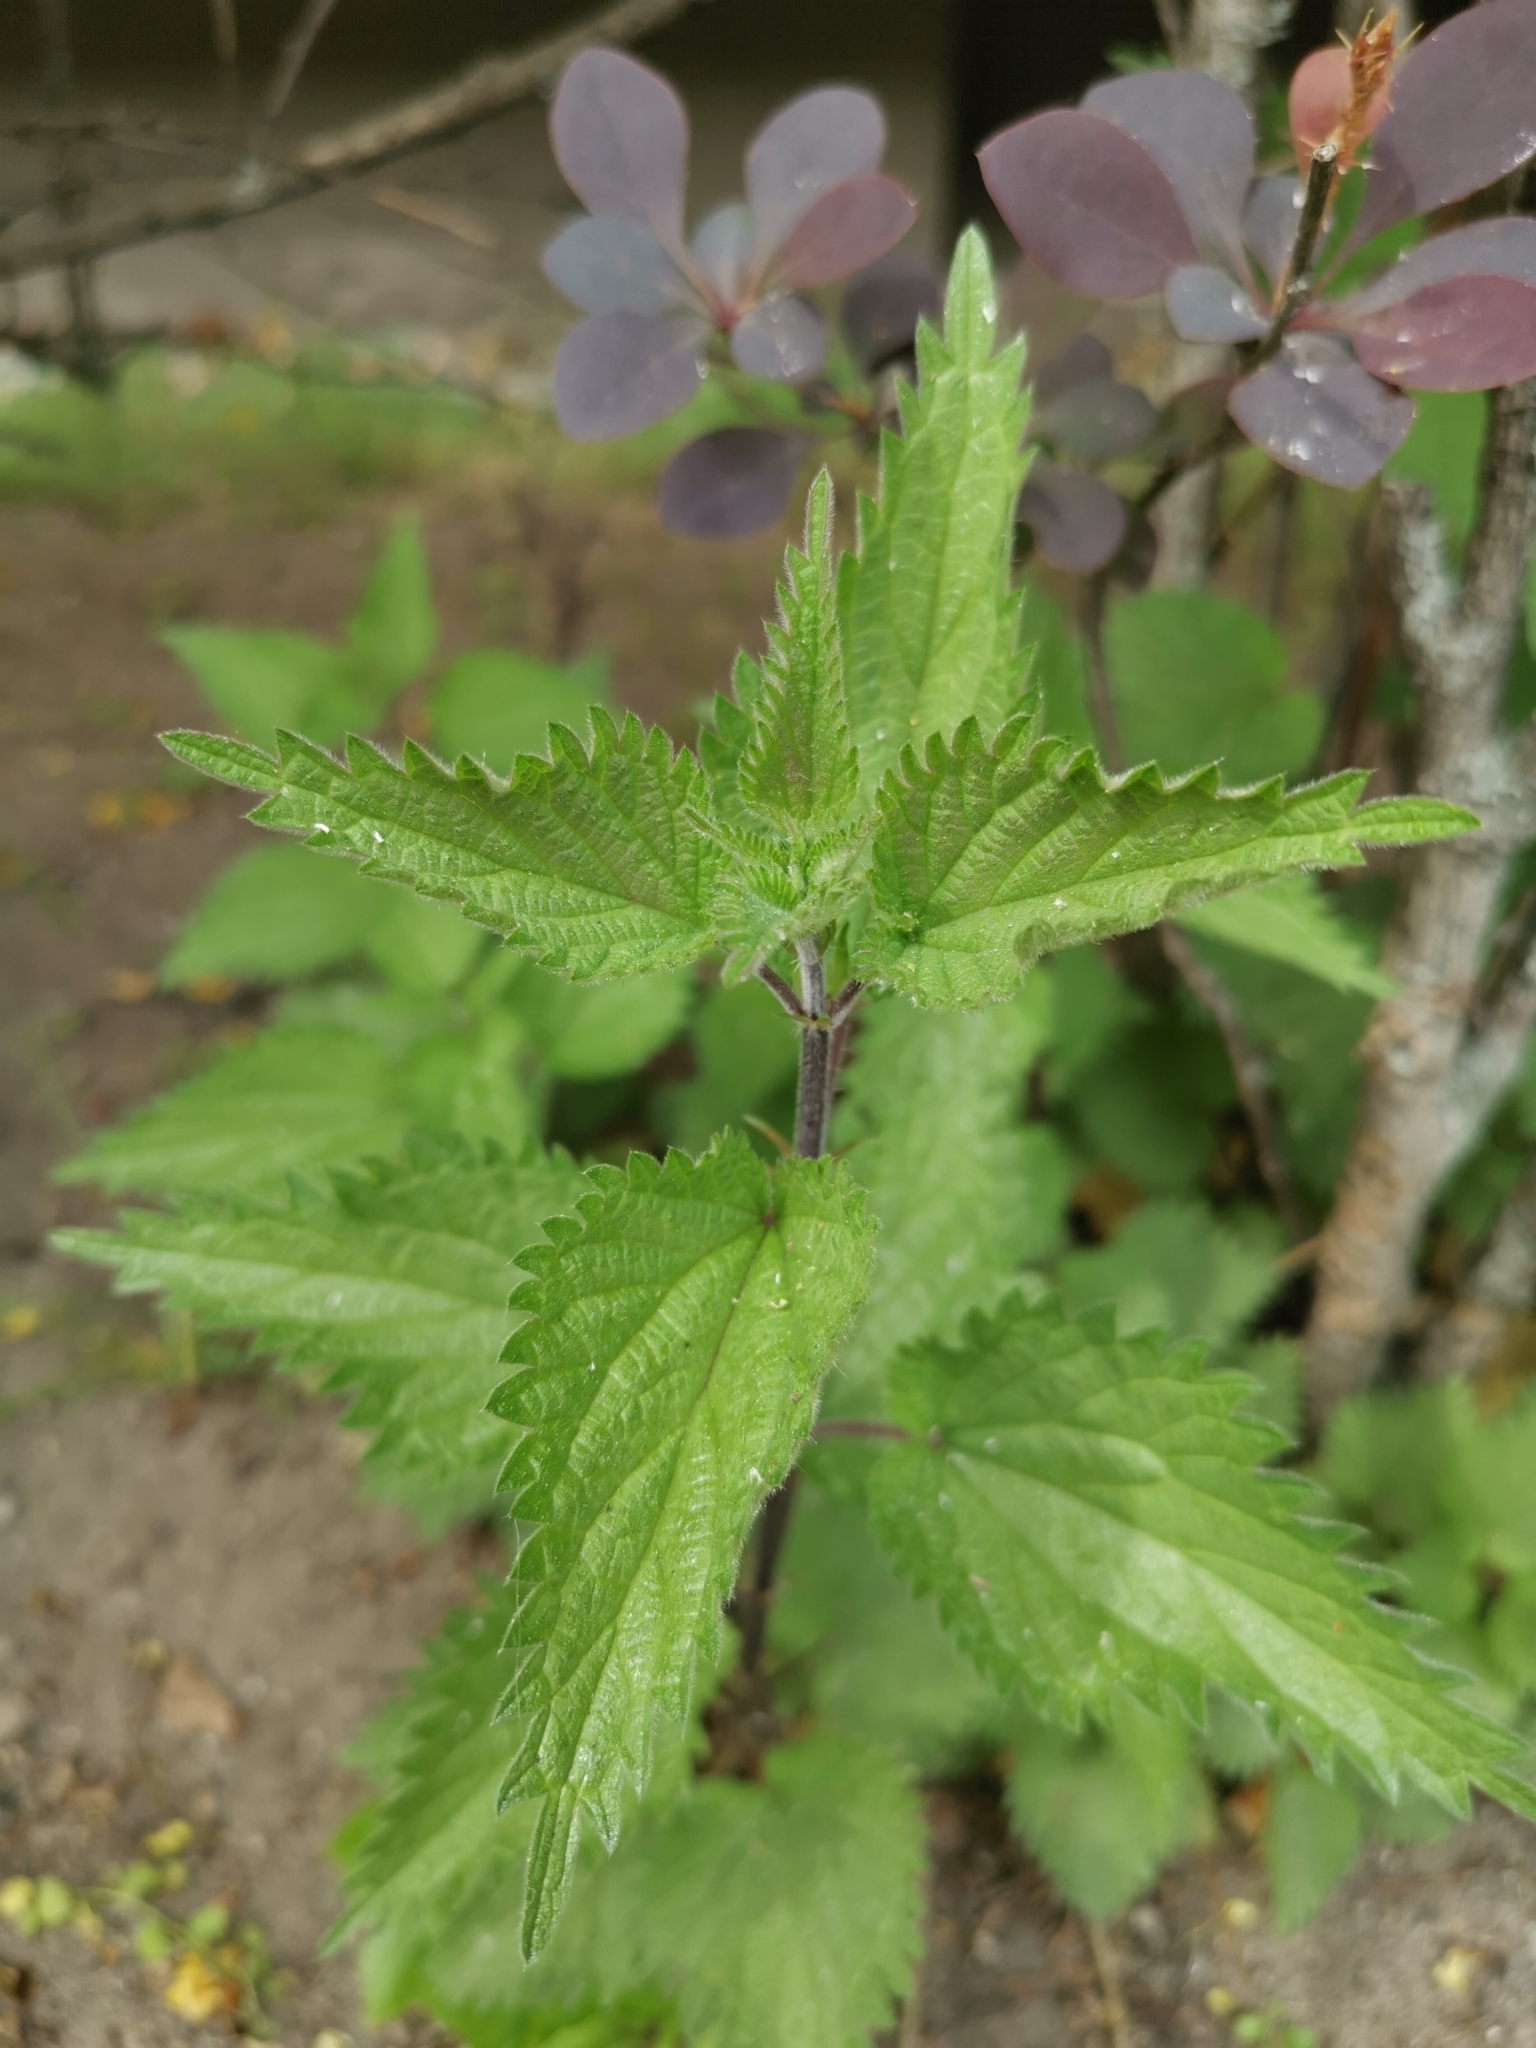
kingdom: Plantae
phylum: Tracheophyta
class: Magnoliopsida
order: Rosales
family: Urticaceae
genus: Urtica
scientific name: Urtica dioica
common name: Common nettle
